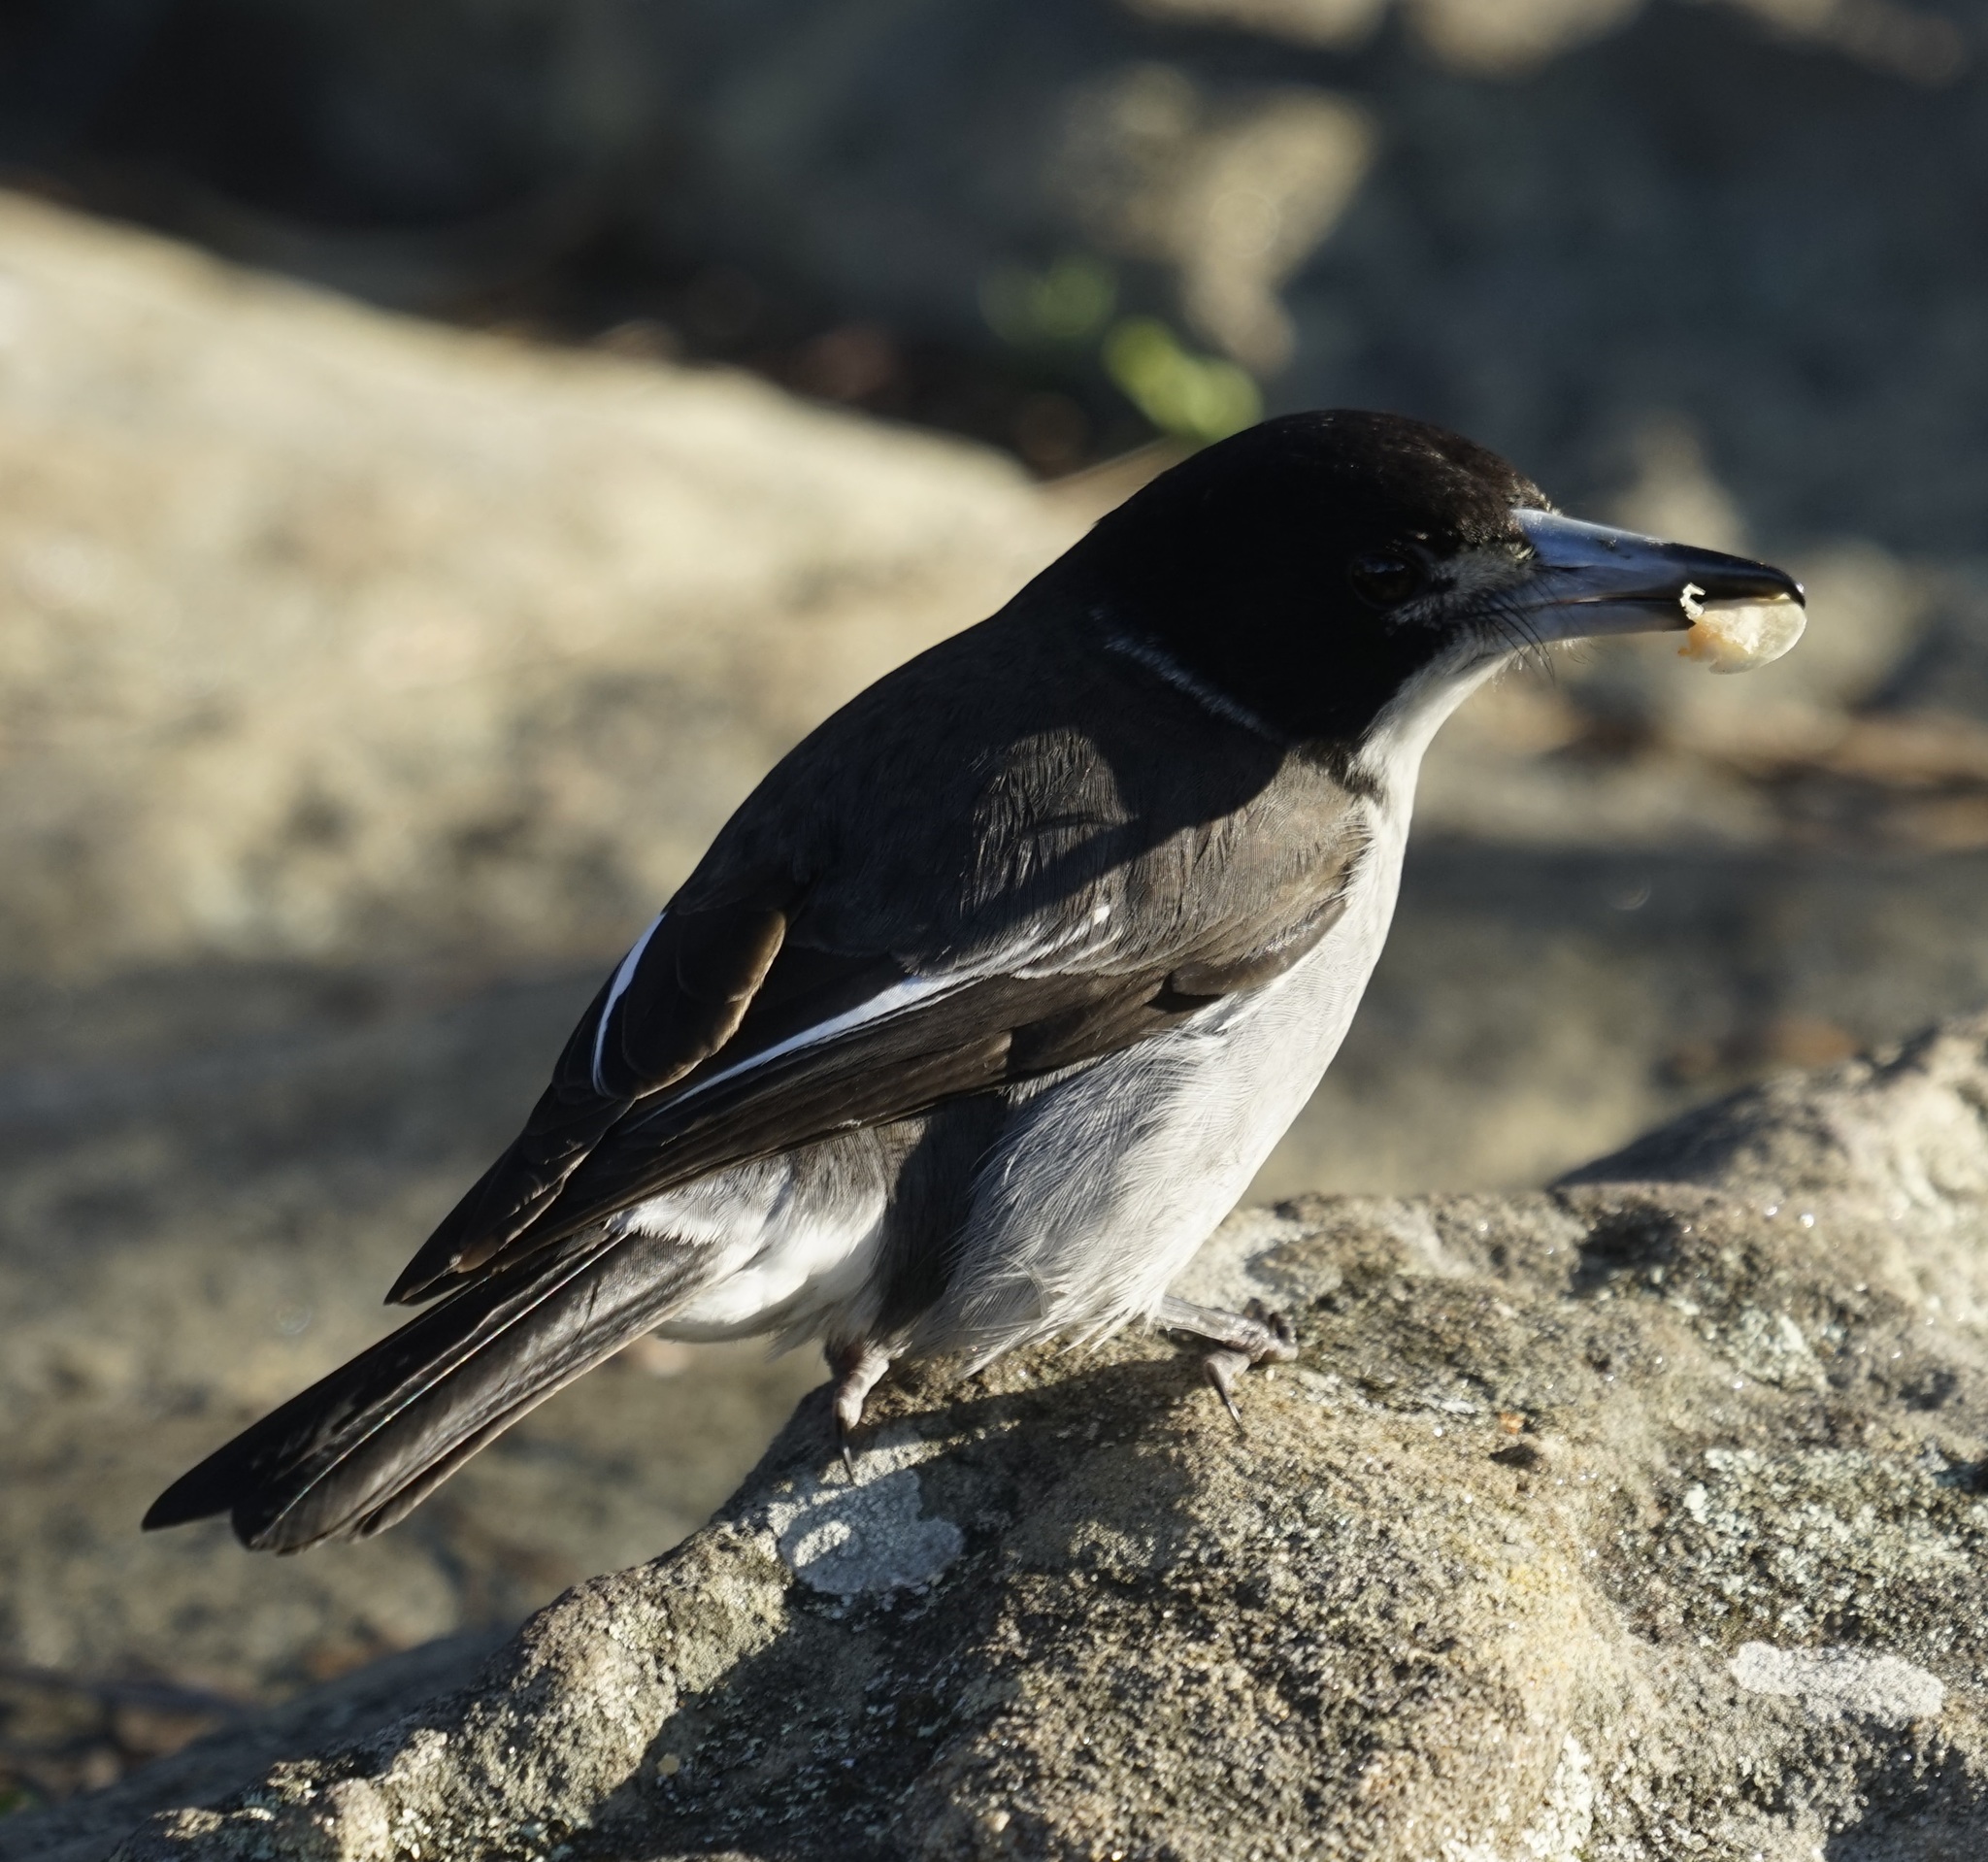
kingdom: Animalia
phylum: Chordata
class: Aves
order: Passeriformes
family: Cracticidae
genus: Cracticus
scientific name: Cracticus torquatus
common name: Grey butcherbird
